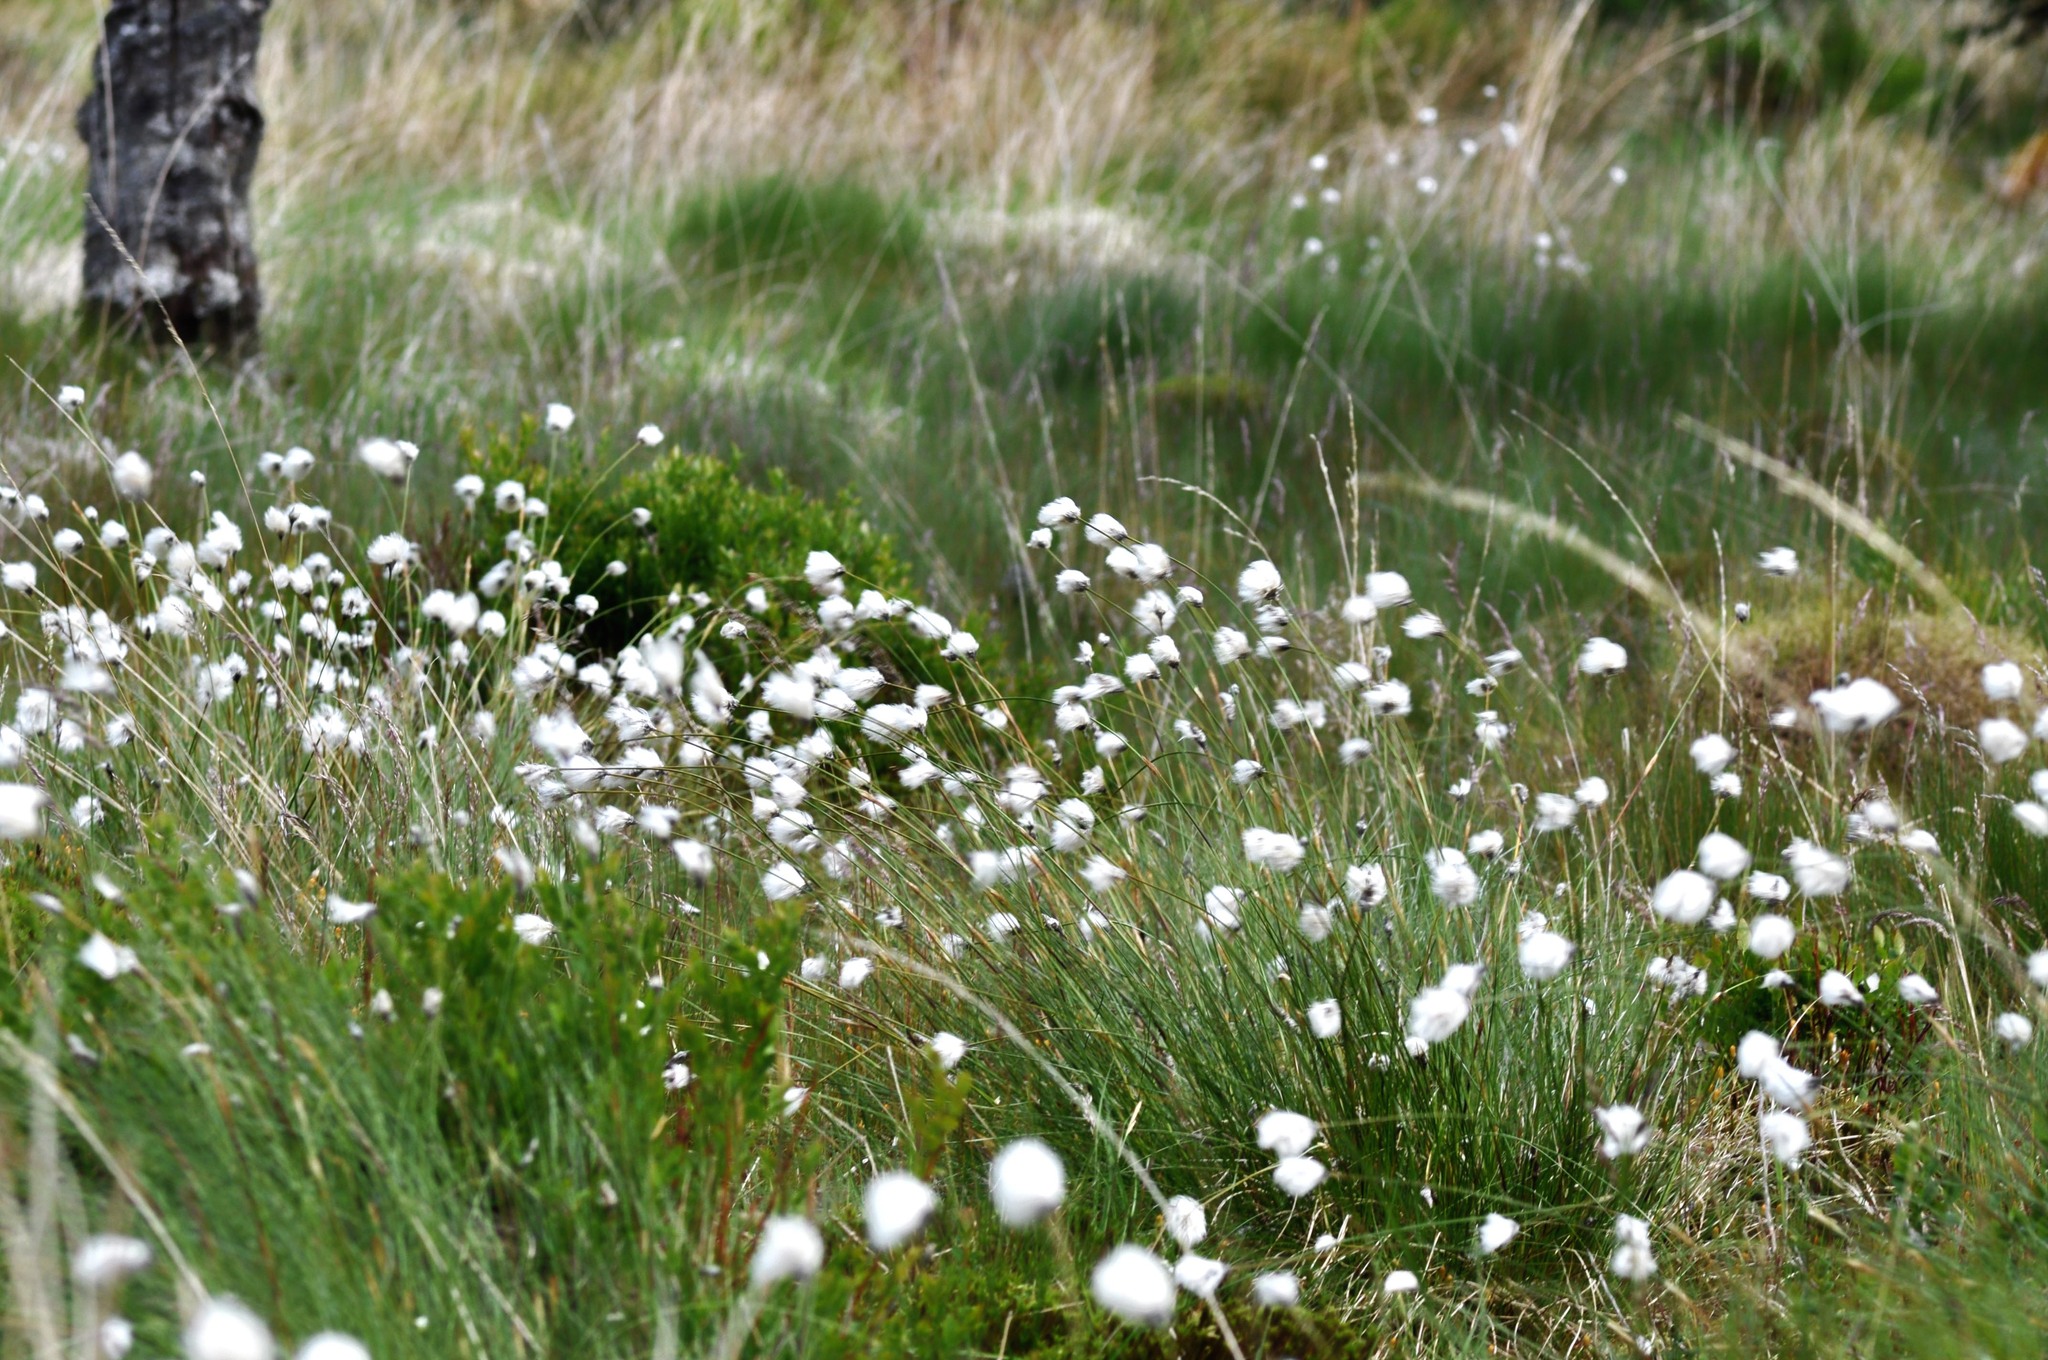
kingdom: Plantae
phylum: Tracheophyta
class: Liliopsida
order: Poales
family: Cyperaceae
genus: Eriophorum
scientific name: Eriophorum vaginatum
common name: Hare's-tail cottongrass
